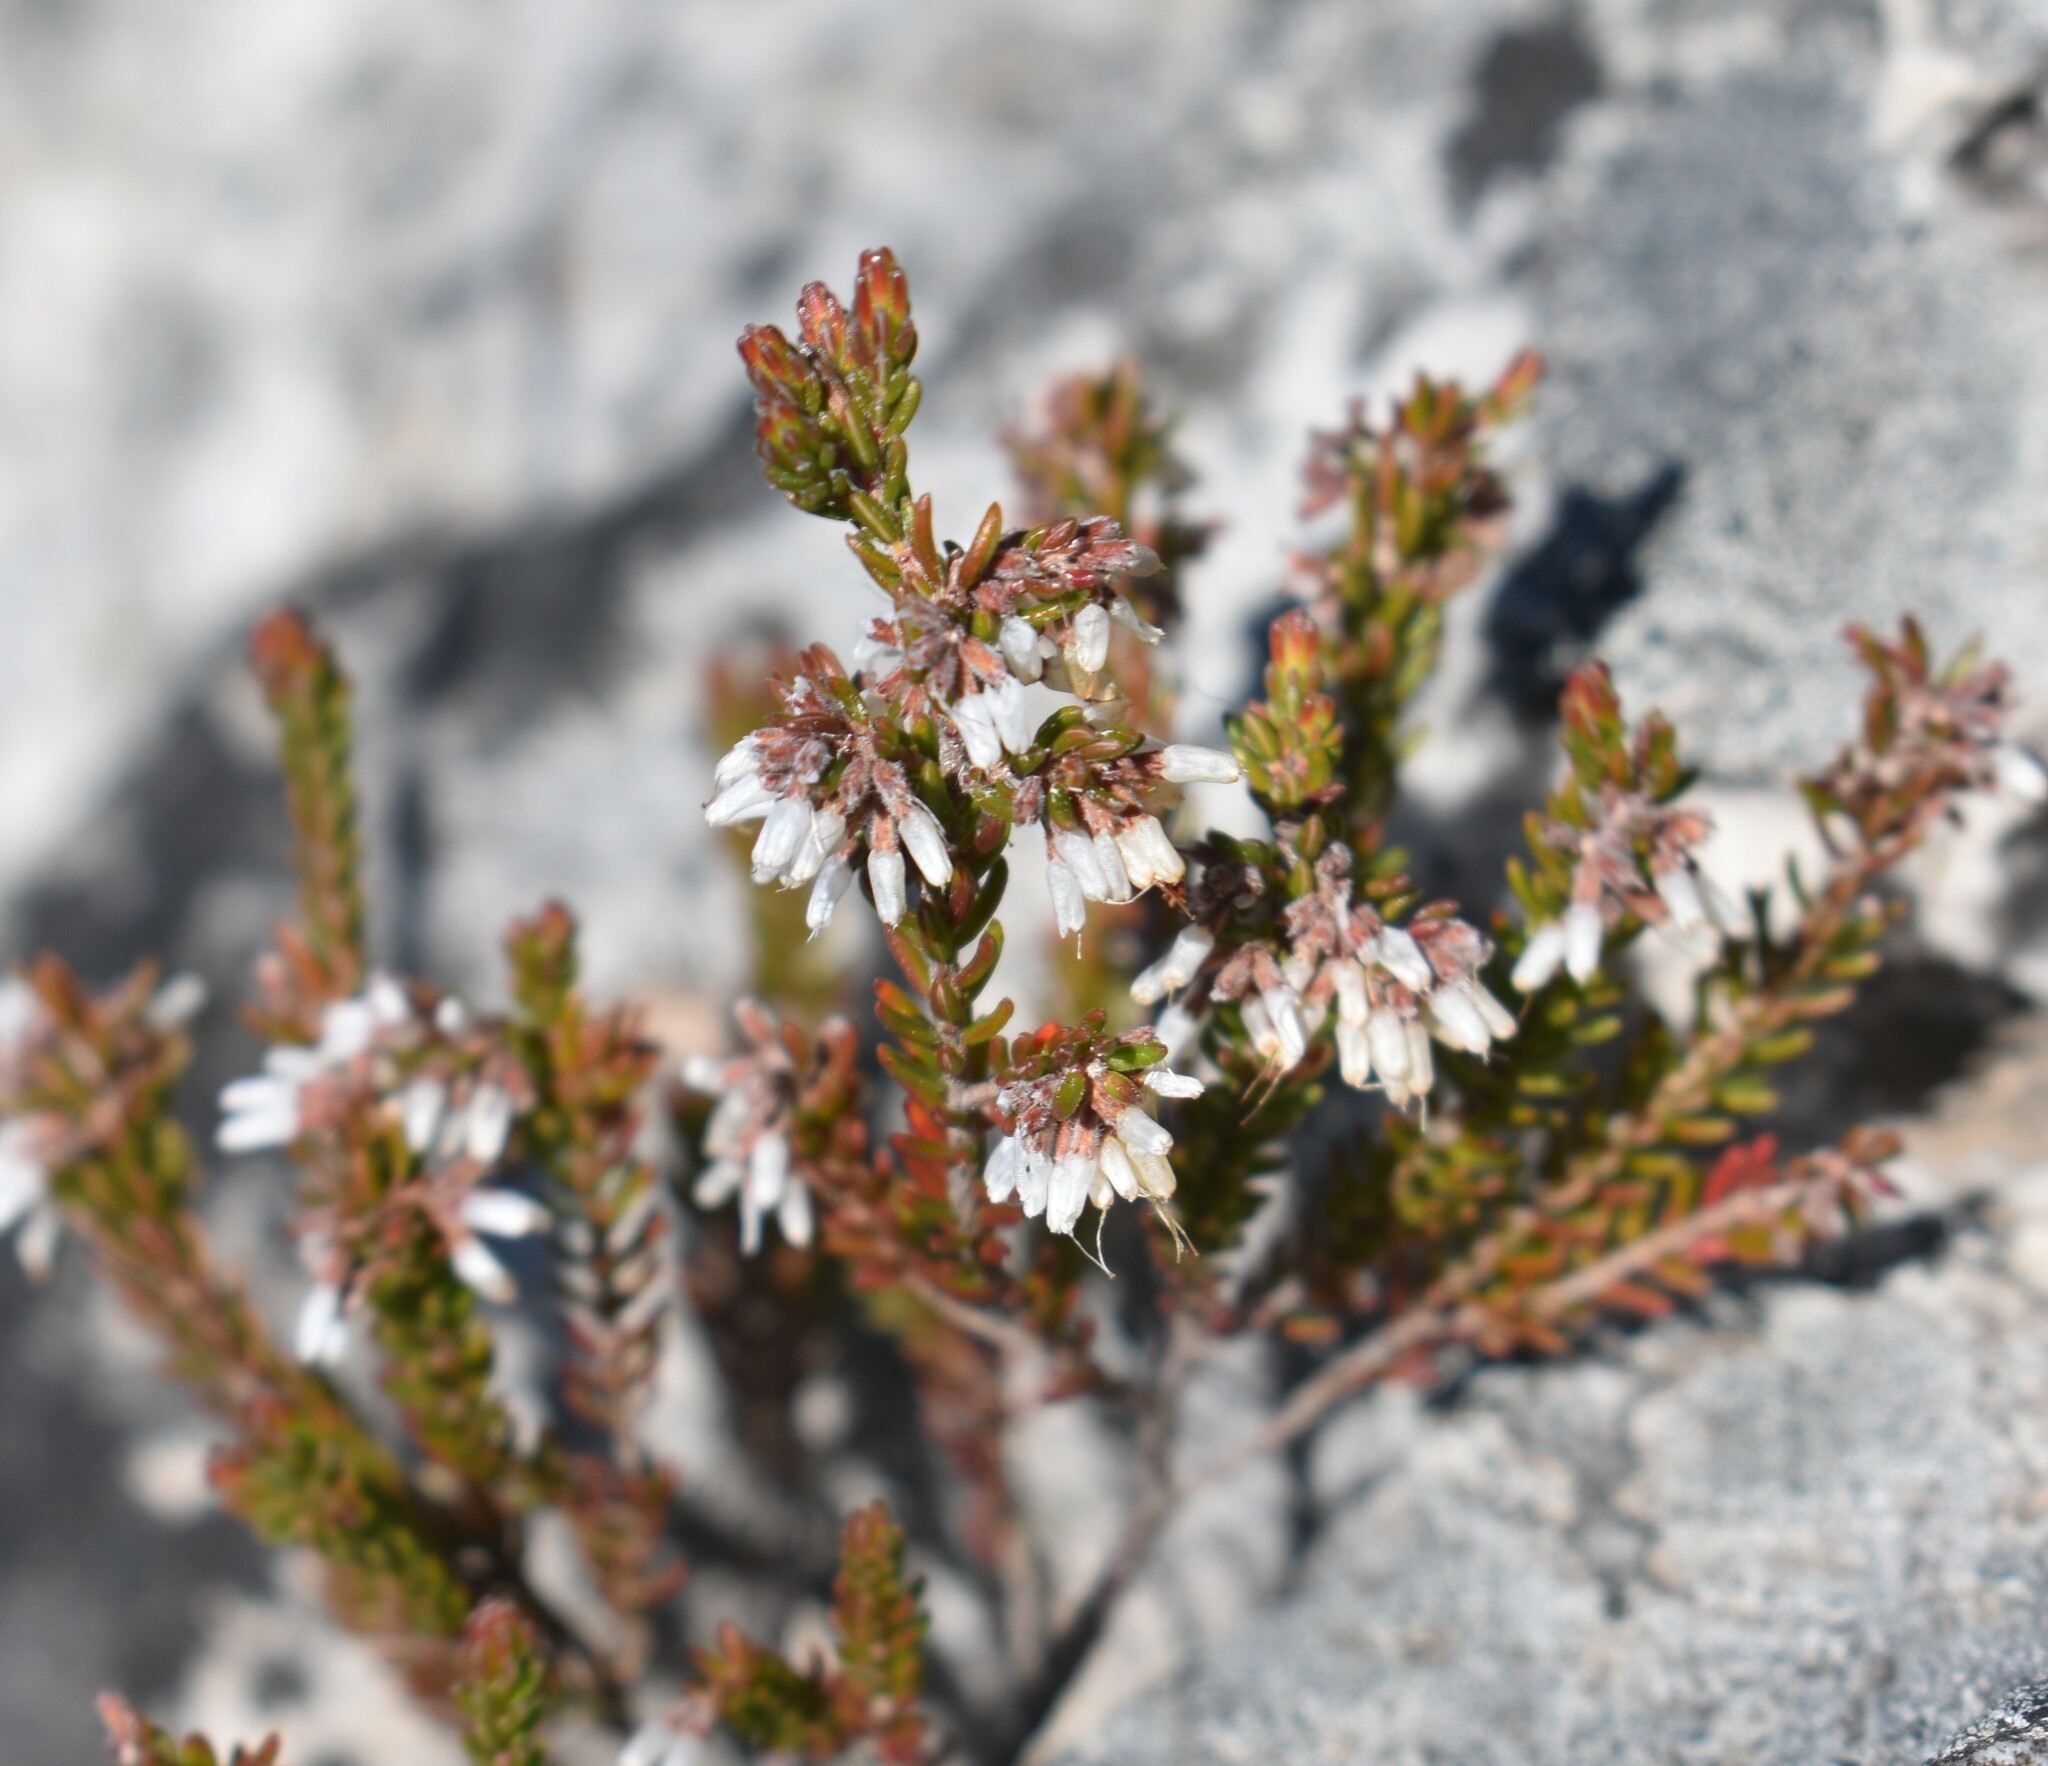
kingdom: Plantae
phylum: Tracheophyta
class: Magnoliopsida
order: Ericales
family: Ericaceae
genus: Erica
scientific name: Erica uberiflora
